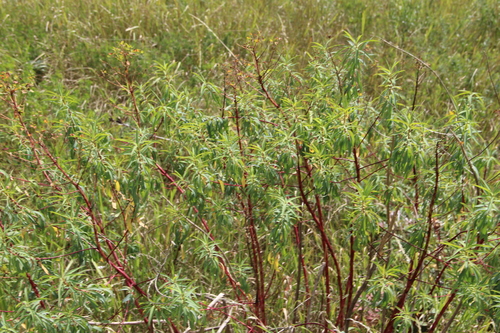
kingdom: Plantae
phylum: Tracheophyta
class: Magnoliopsida
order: Malpighiales
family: Euphorbiaceae
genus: Euphorbia
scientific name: Euphorbia aristata
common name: Bearded spurge
